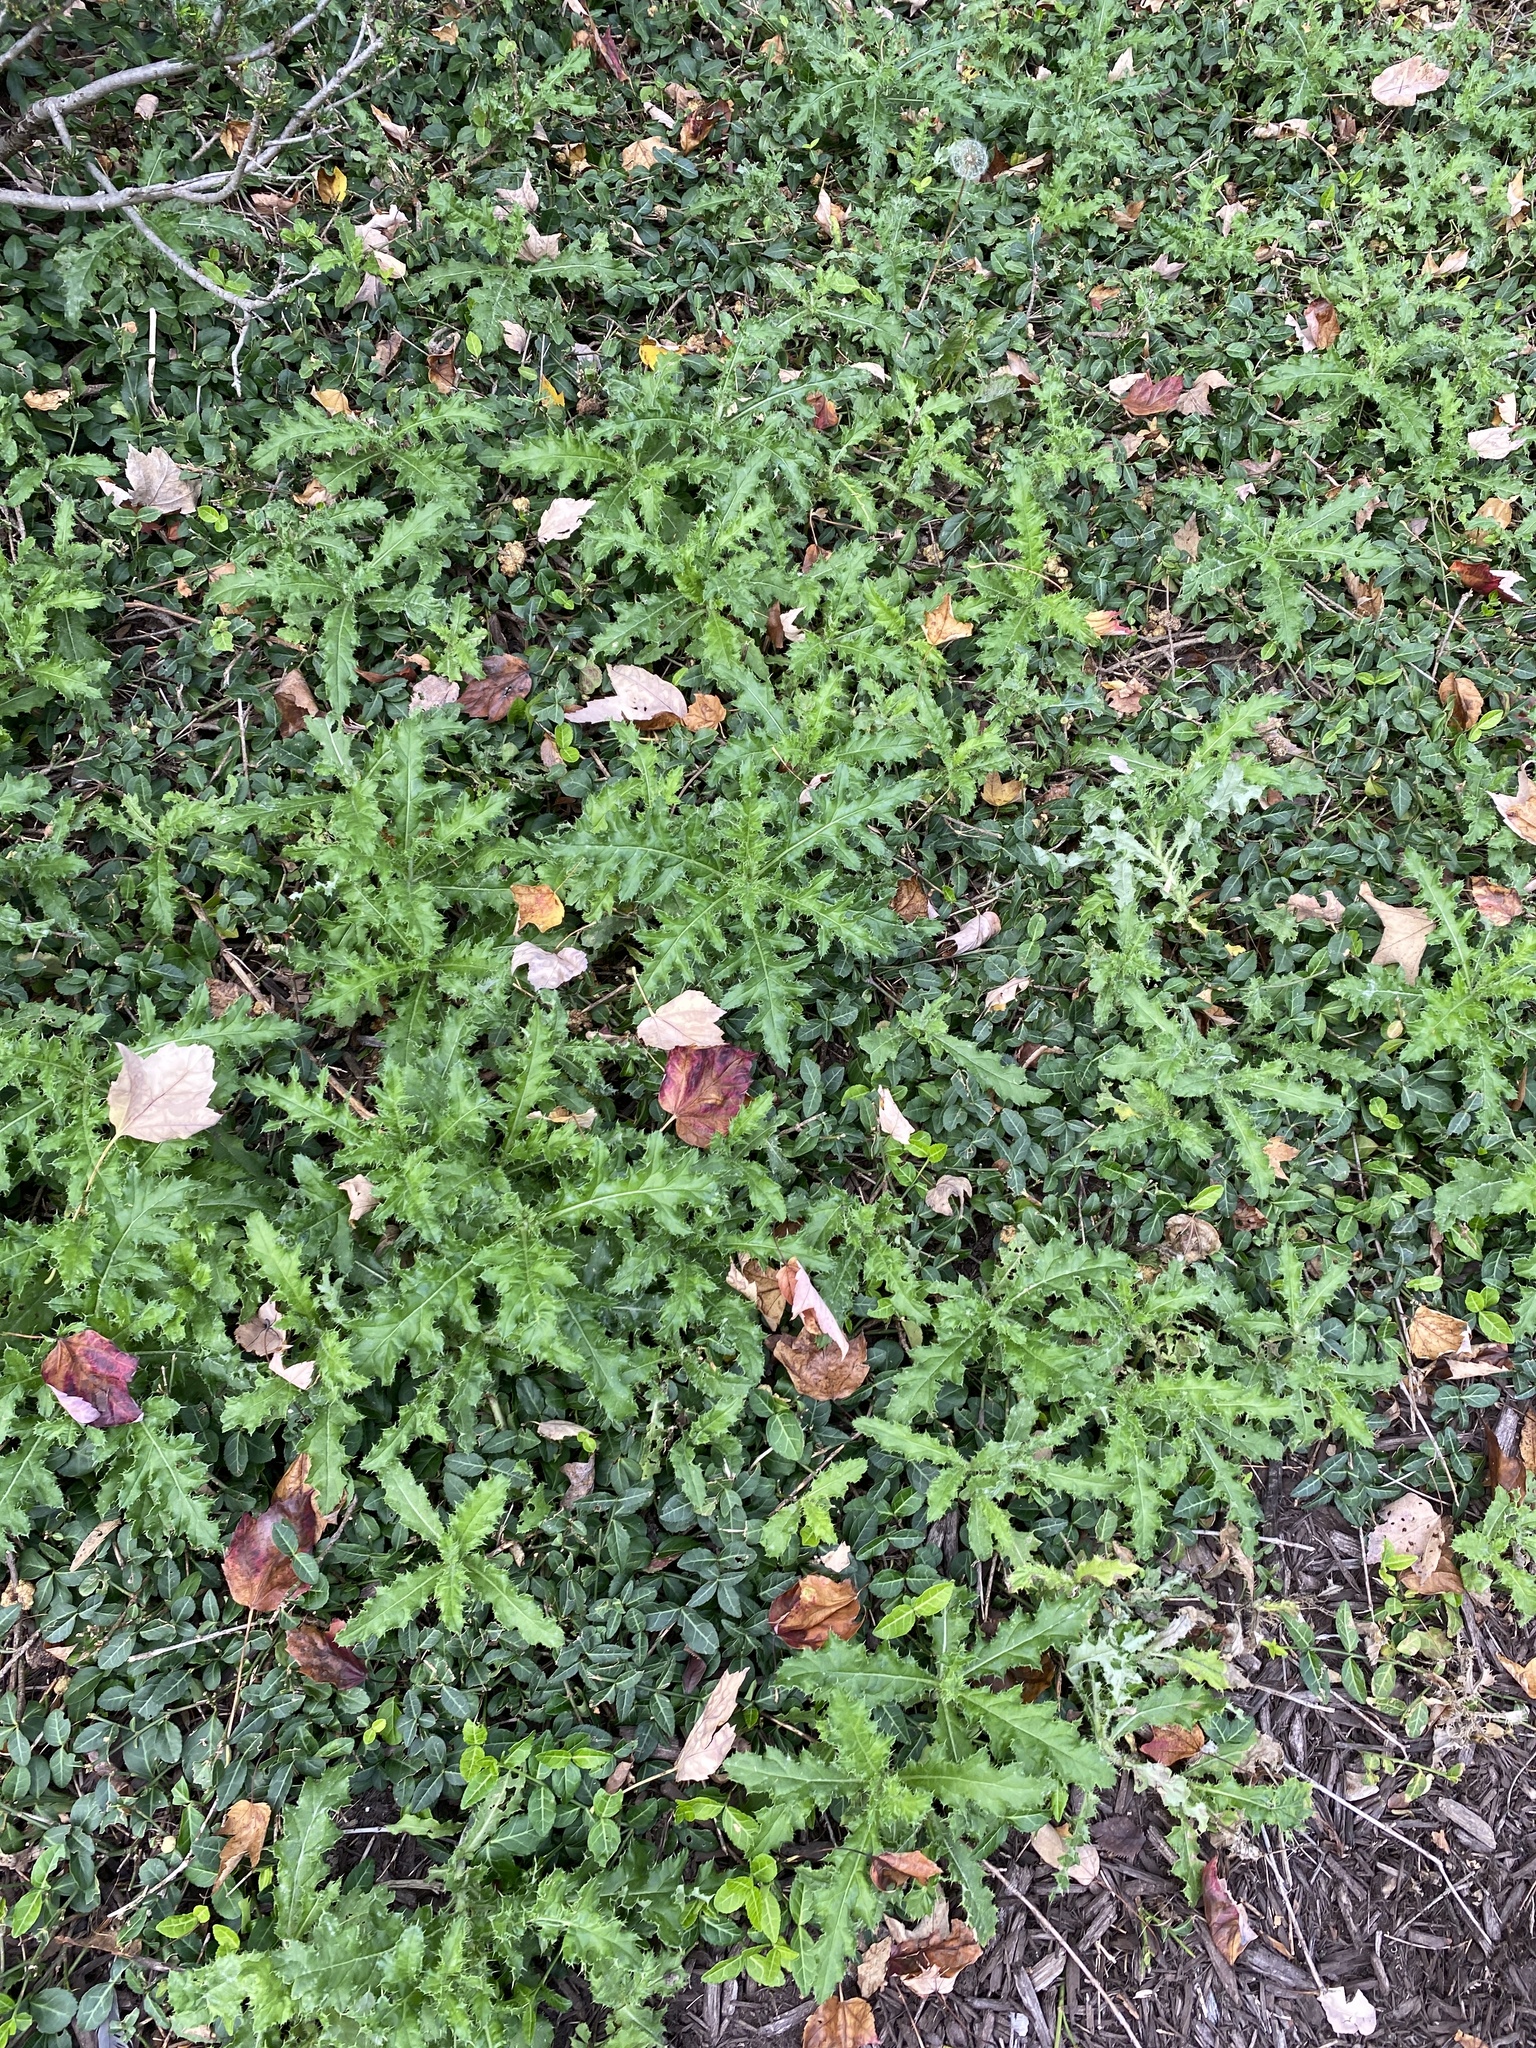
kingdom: Plantae
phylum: Tracheophyta
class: Magnoliopsida
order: Asterales
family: Asteraceae
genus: Cirsium
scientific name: Cirsium arvense
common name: Creeping thistle
